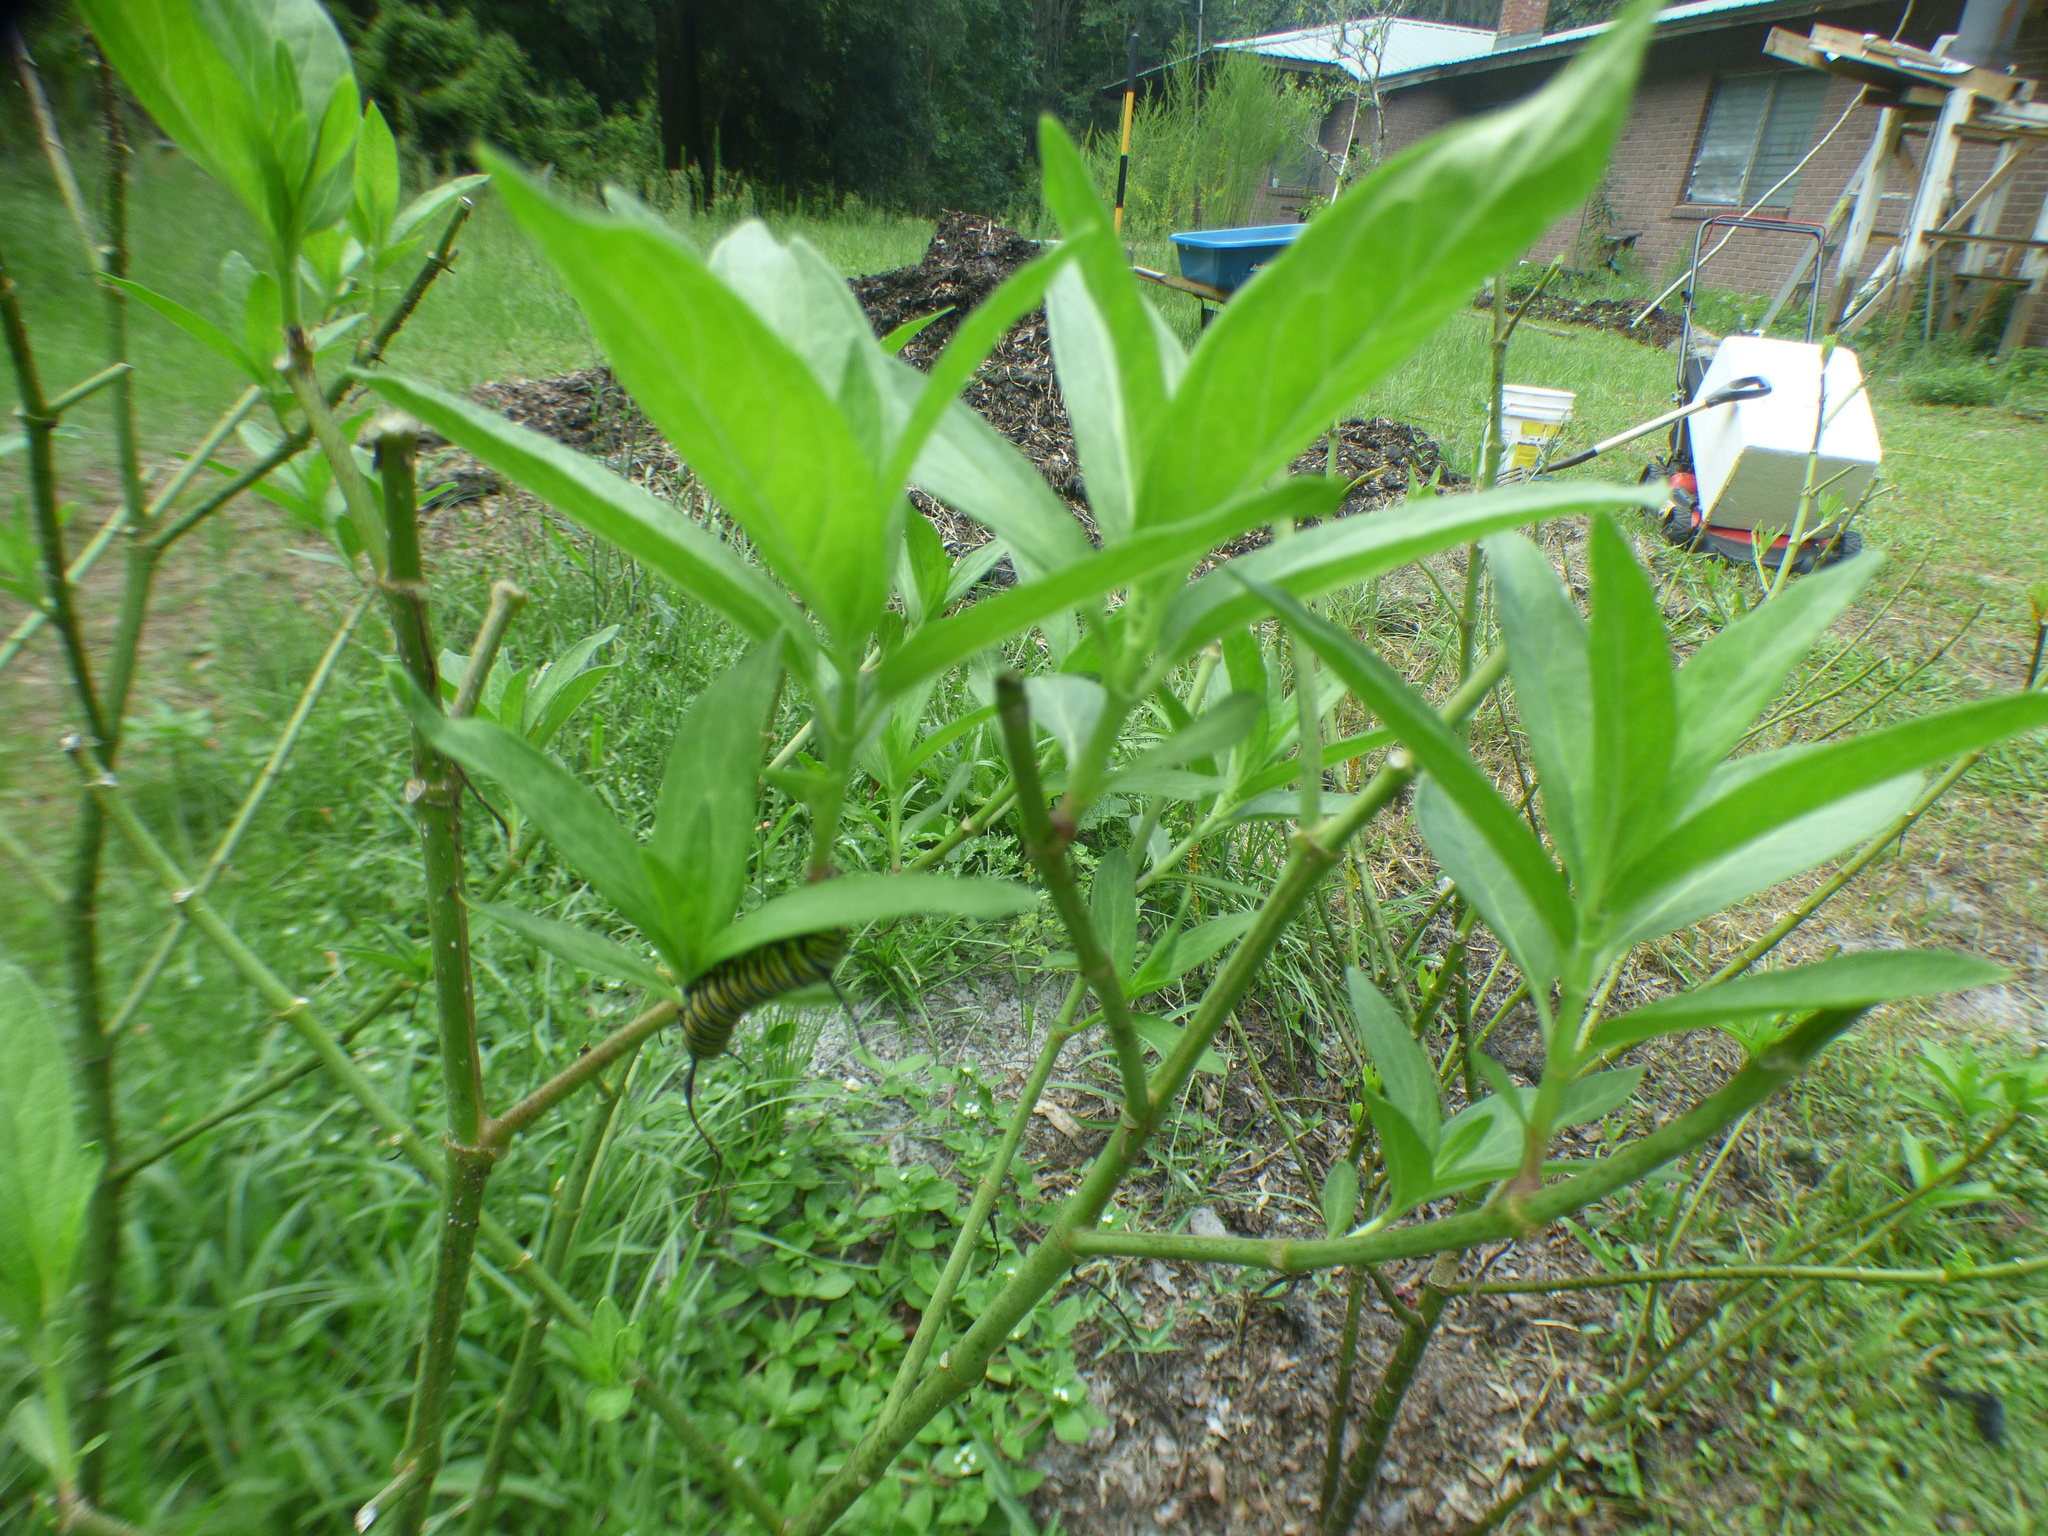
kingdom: Animalia
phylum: Arthropoda
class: Insecta
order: Lepidoptera
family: Nymphalidae
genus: Danaus
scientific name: Danaus plexippus
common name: Monarch
